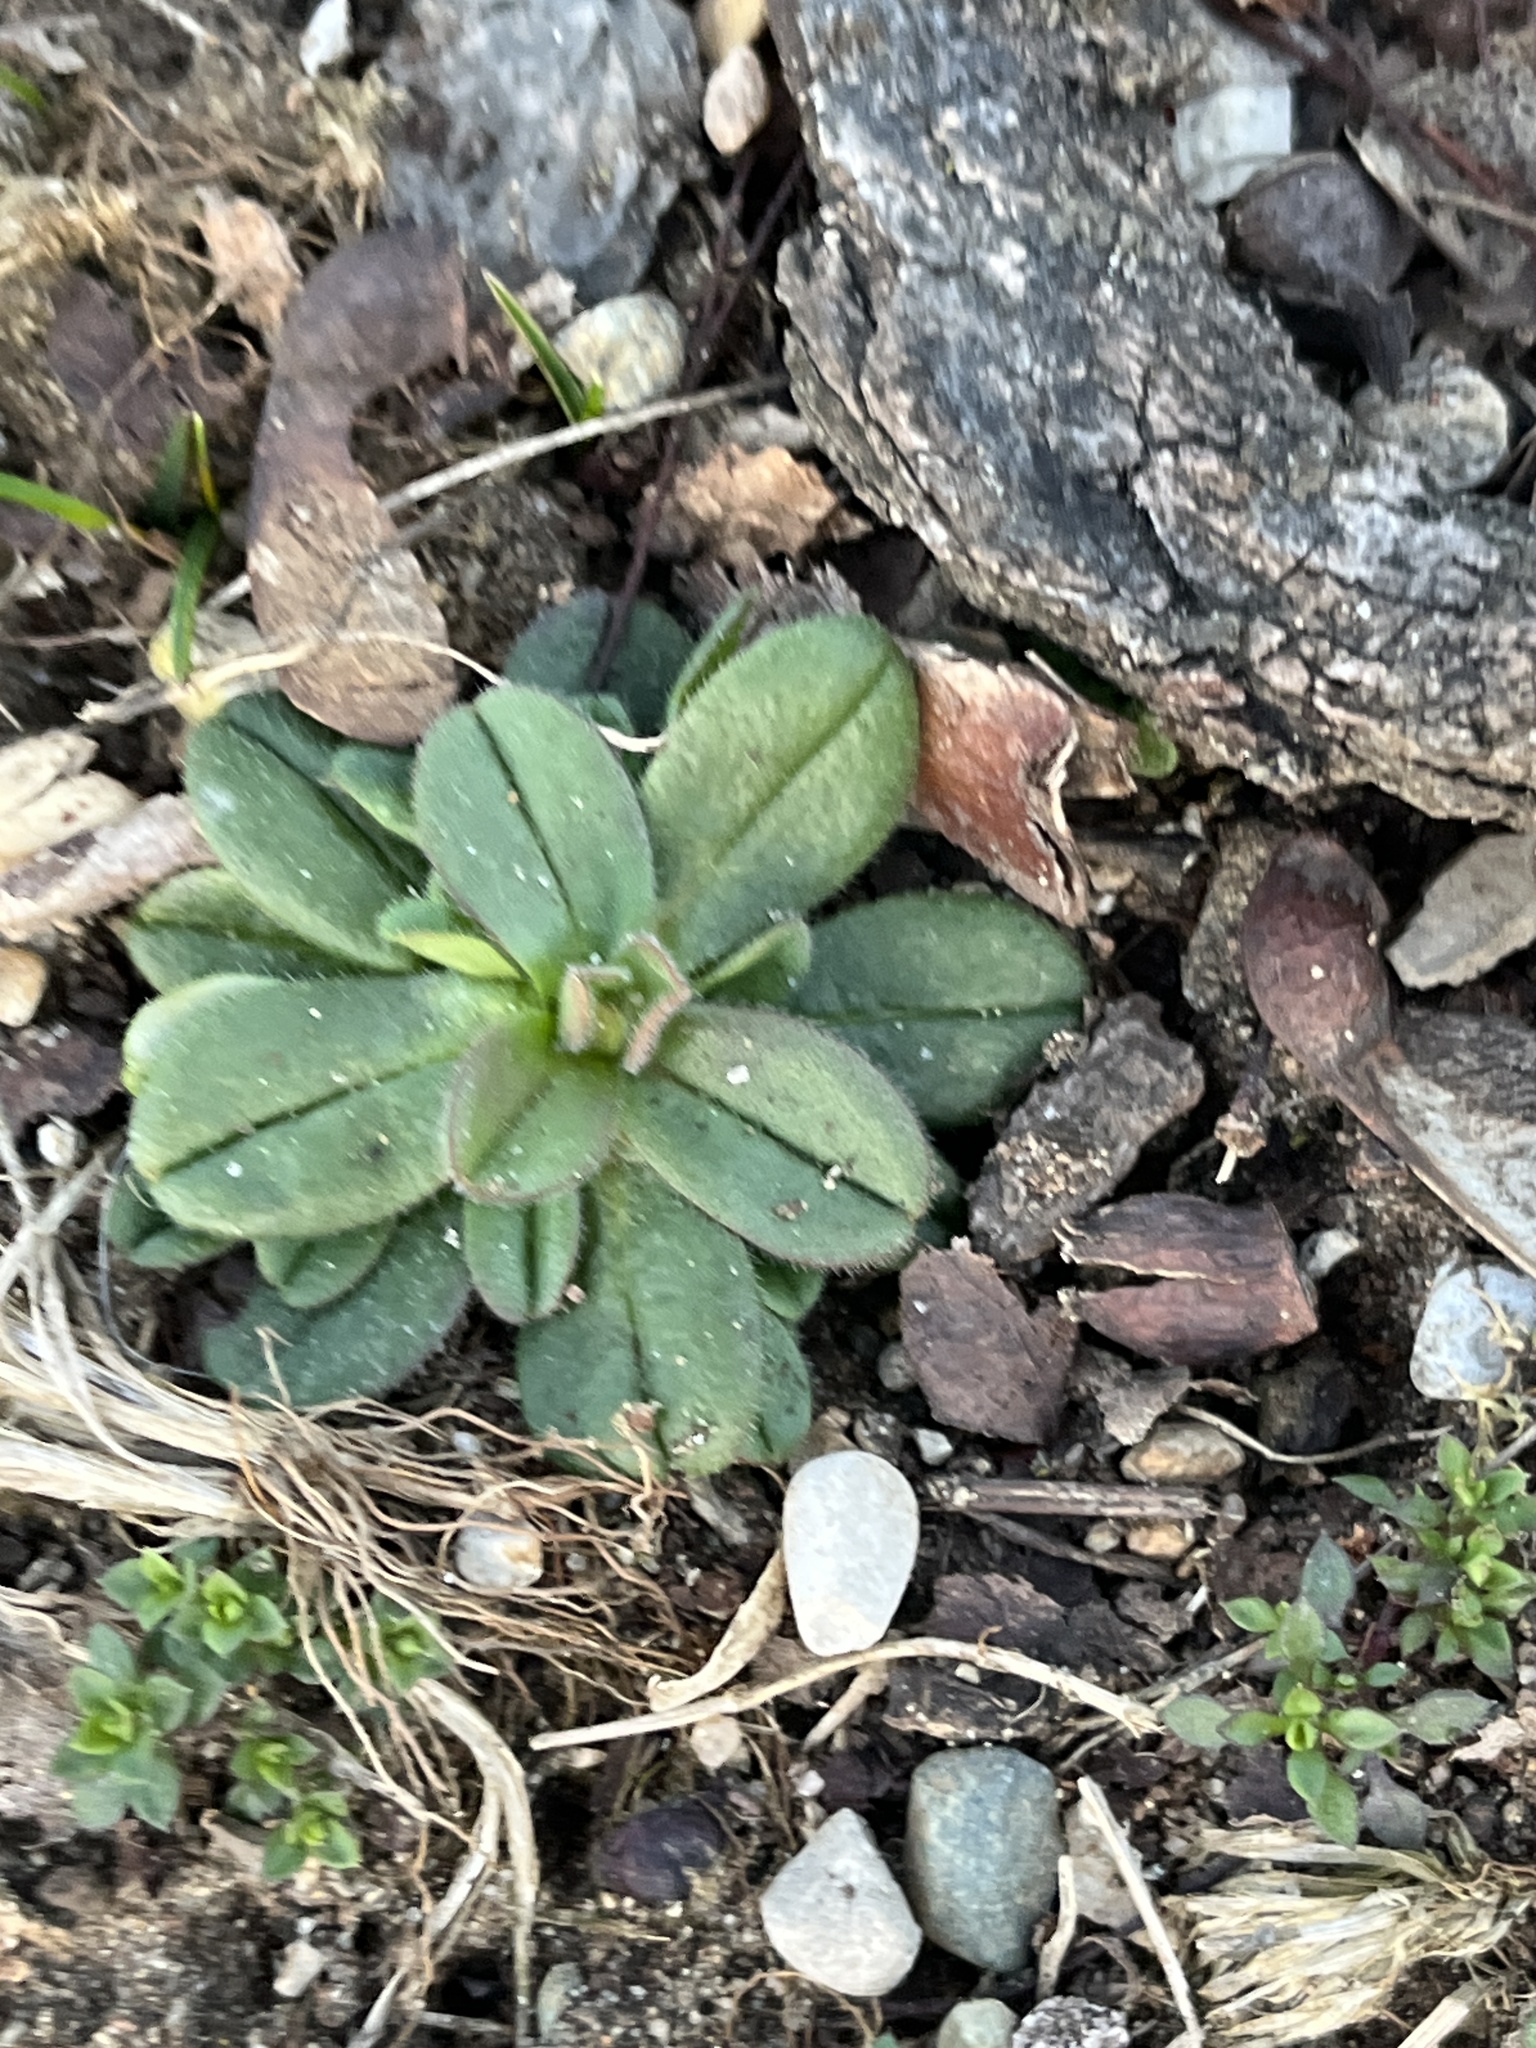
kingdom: Plantae
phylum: Tracheophyta
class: Magnoliopsida
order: Caryophyllales
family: Caryophyllaceae
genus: Cerastium
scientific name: Cerastium fontanum
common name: Common mouse-ear
